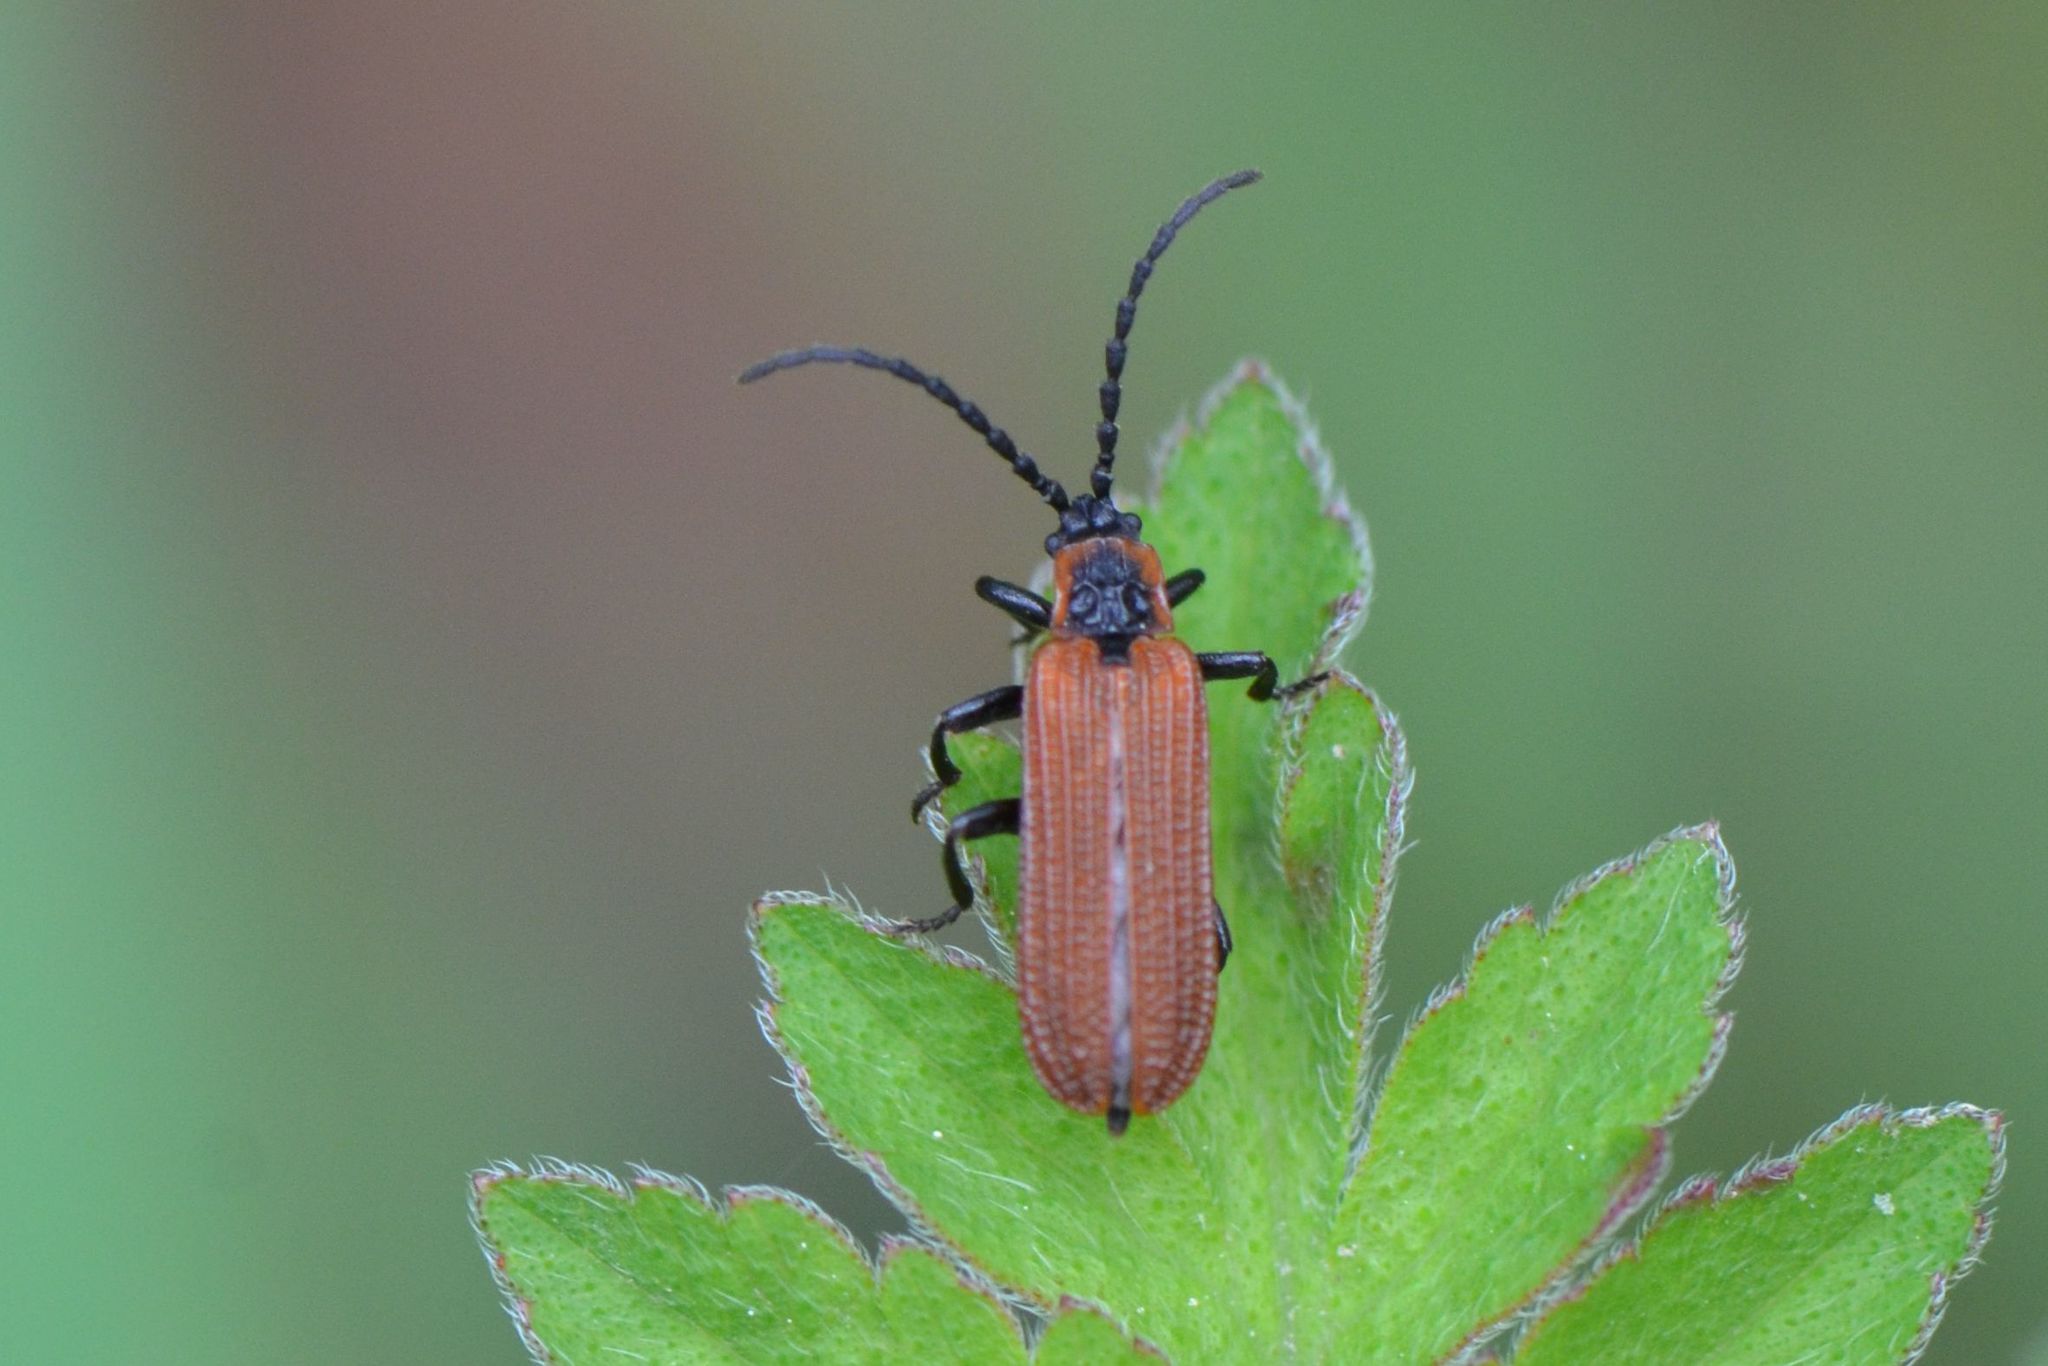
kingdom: Animalia
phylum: Arthropoda
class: Insecta
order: Coleoptera
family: Lycidae
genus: Erotides
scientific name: Erotides cosnardi
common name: Cosnard's net-winged beetle
